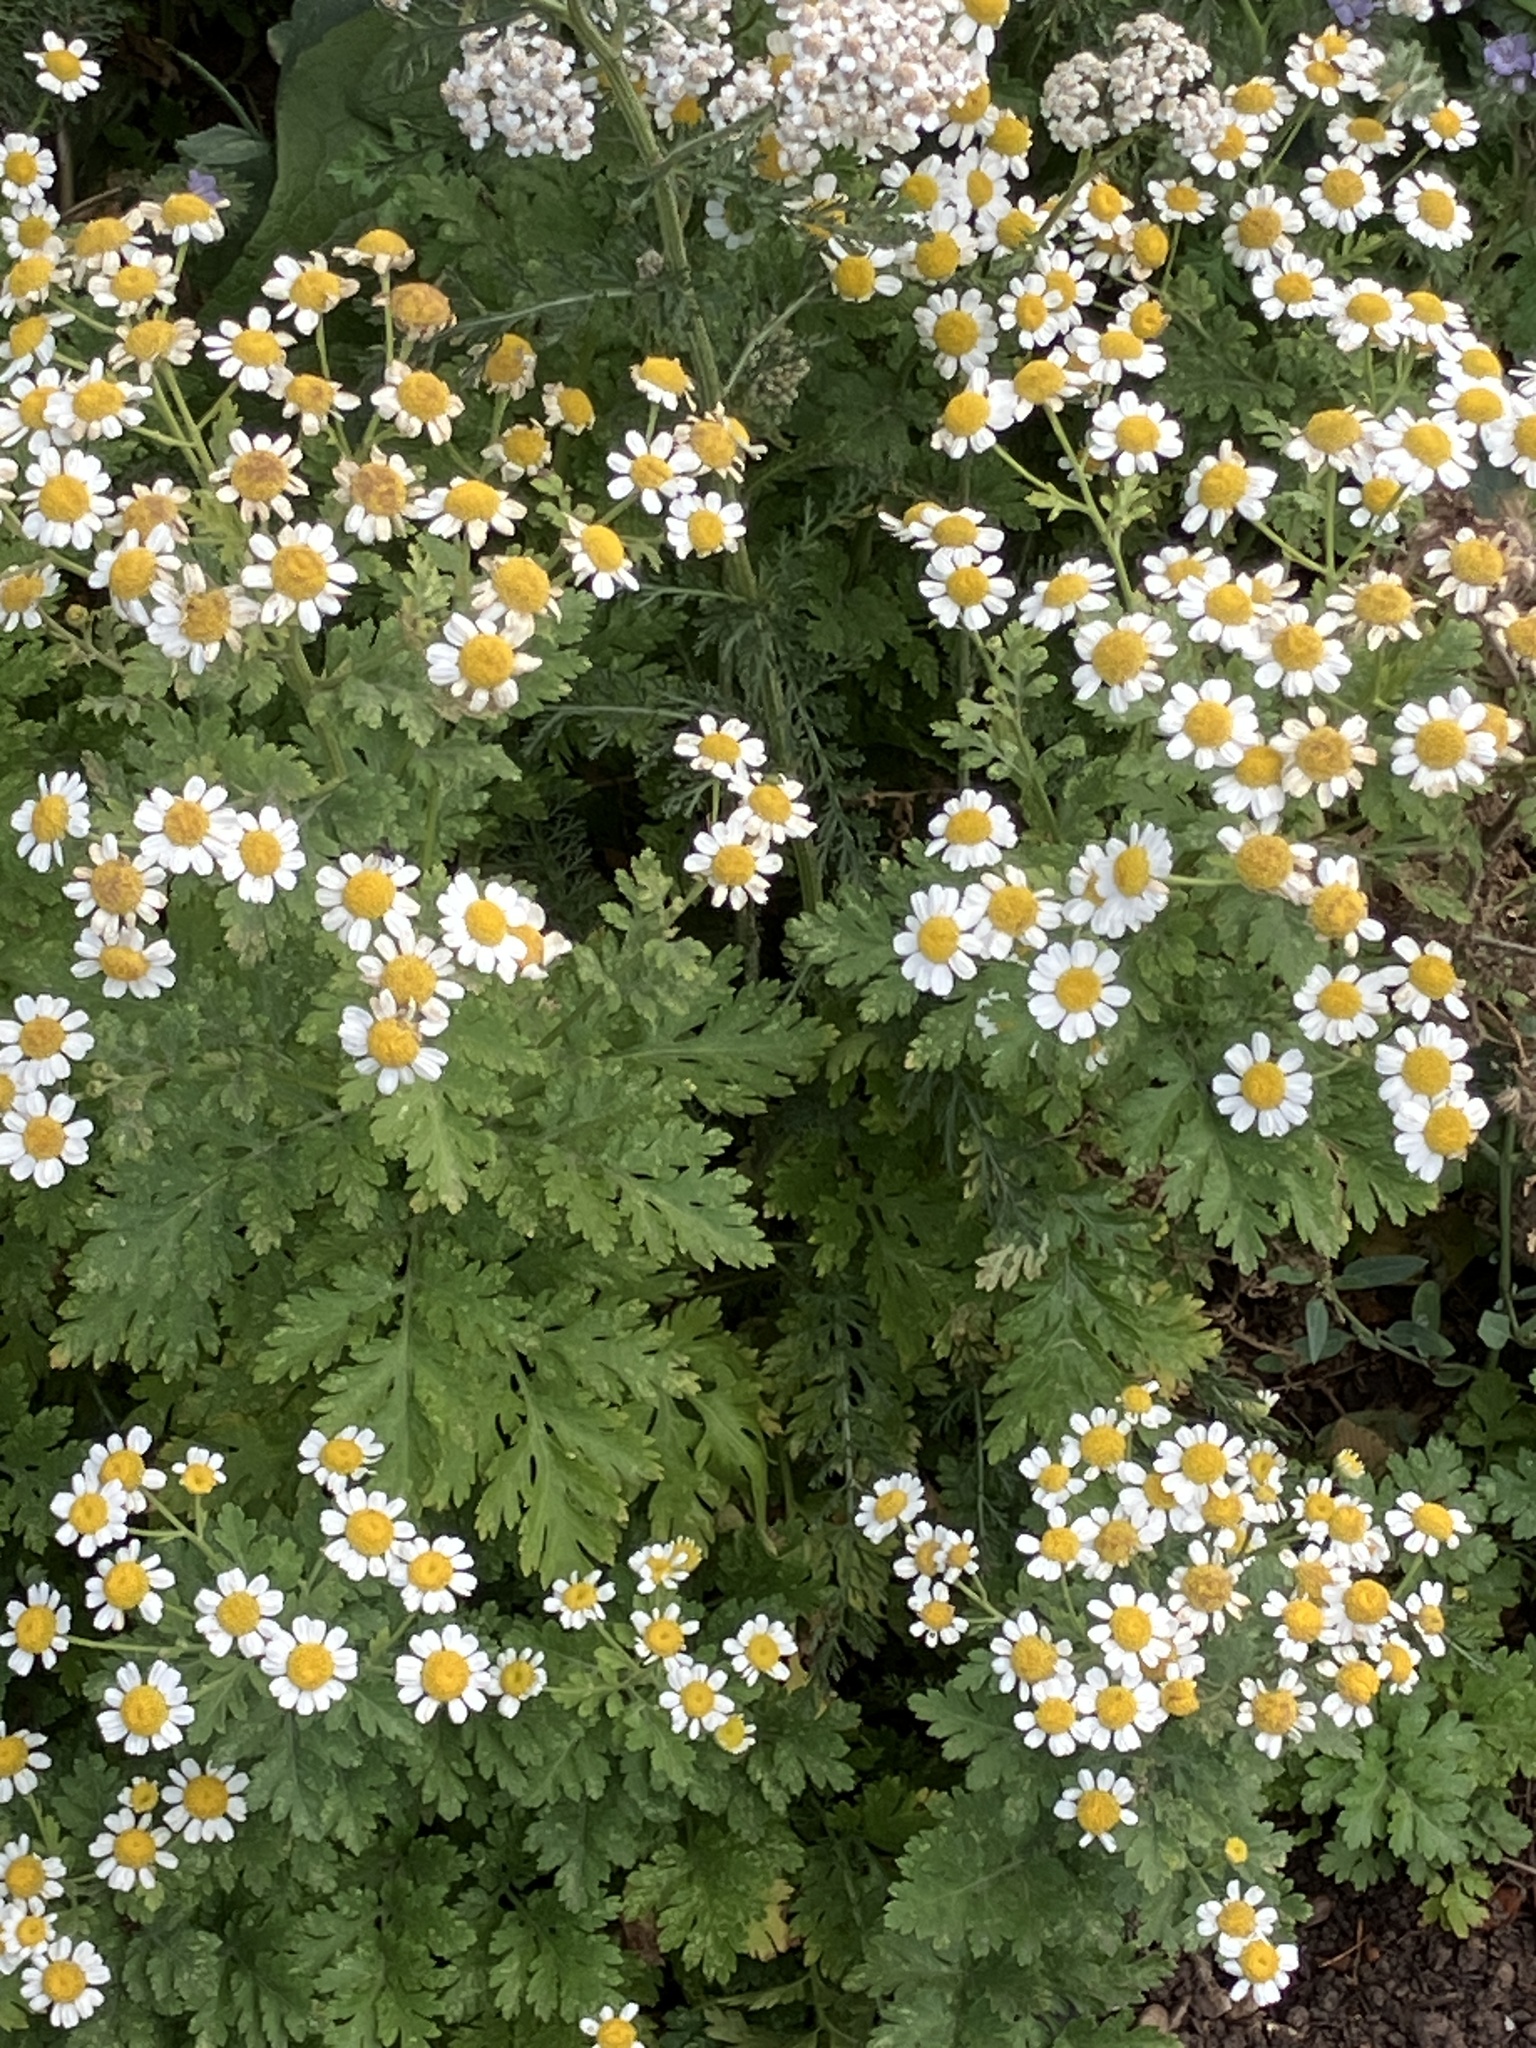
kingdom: Plantae
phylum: Tracheophyta
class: Magnoliopsida
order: Asterales
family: Asteraceae
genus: Tanacetum
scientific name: Tanacetum parthenium
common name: Feverfew
